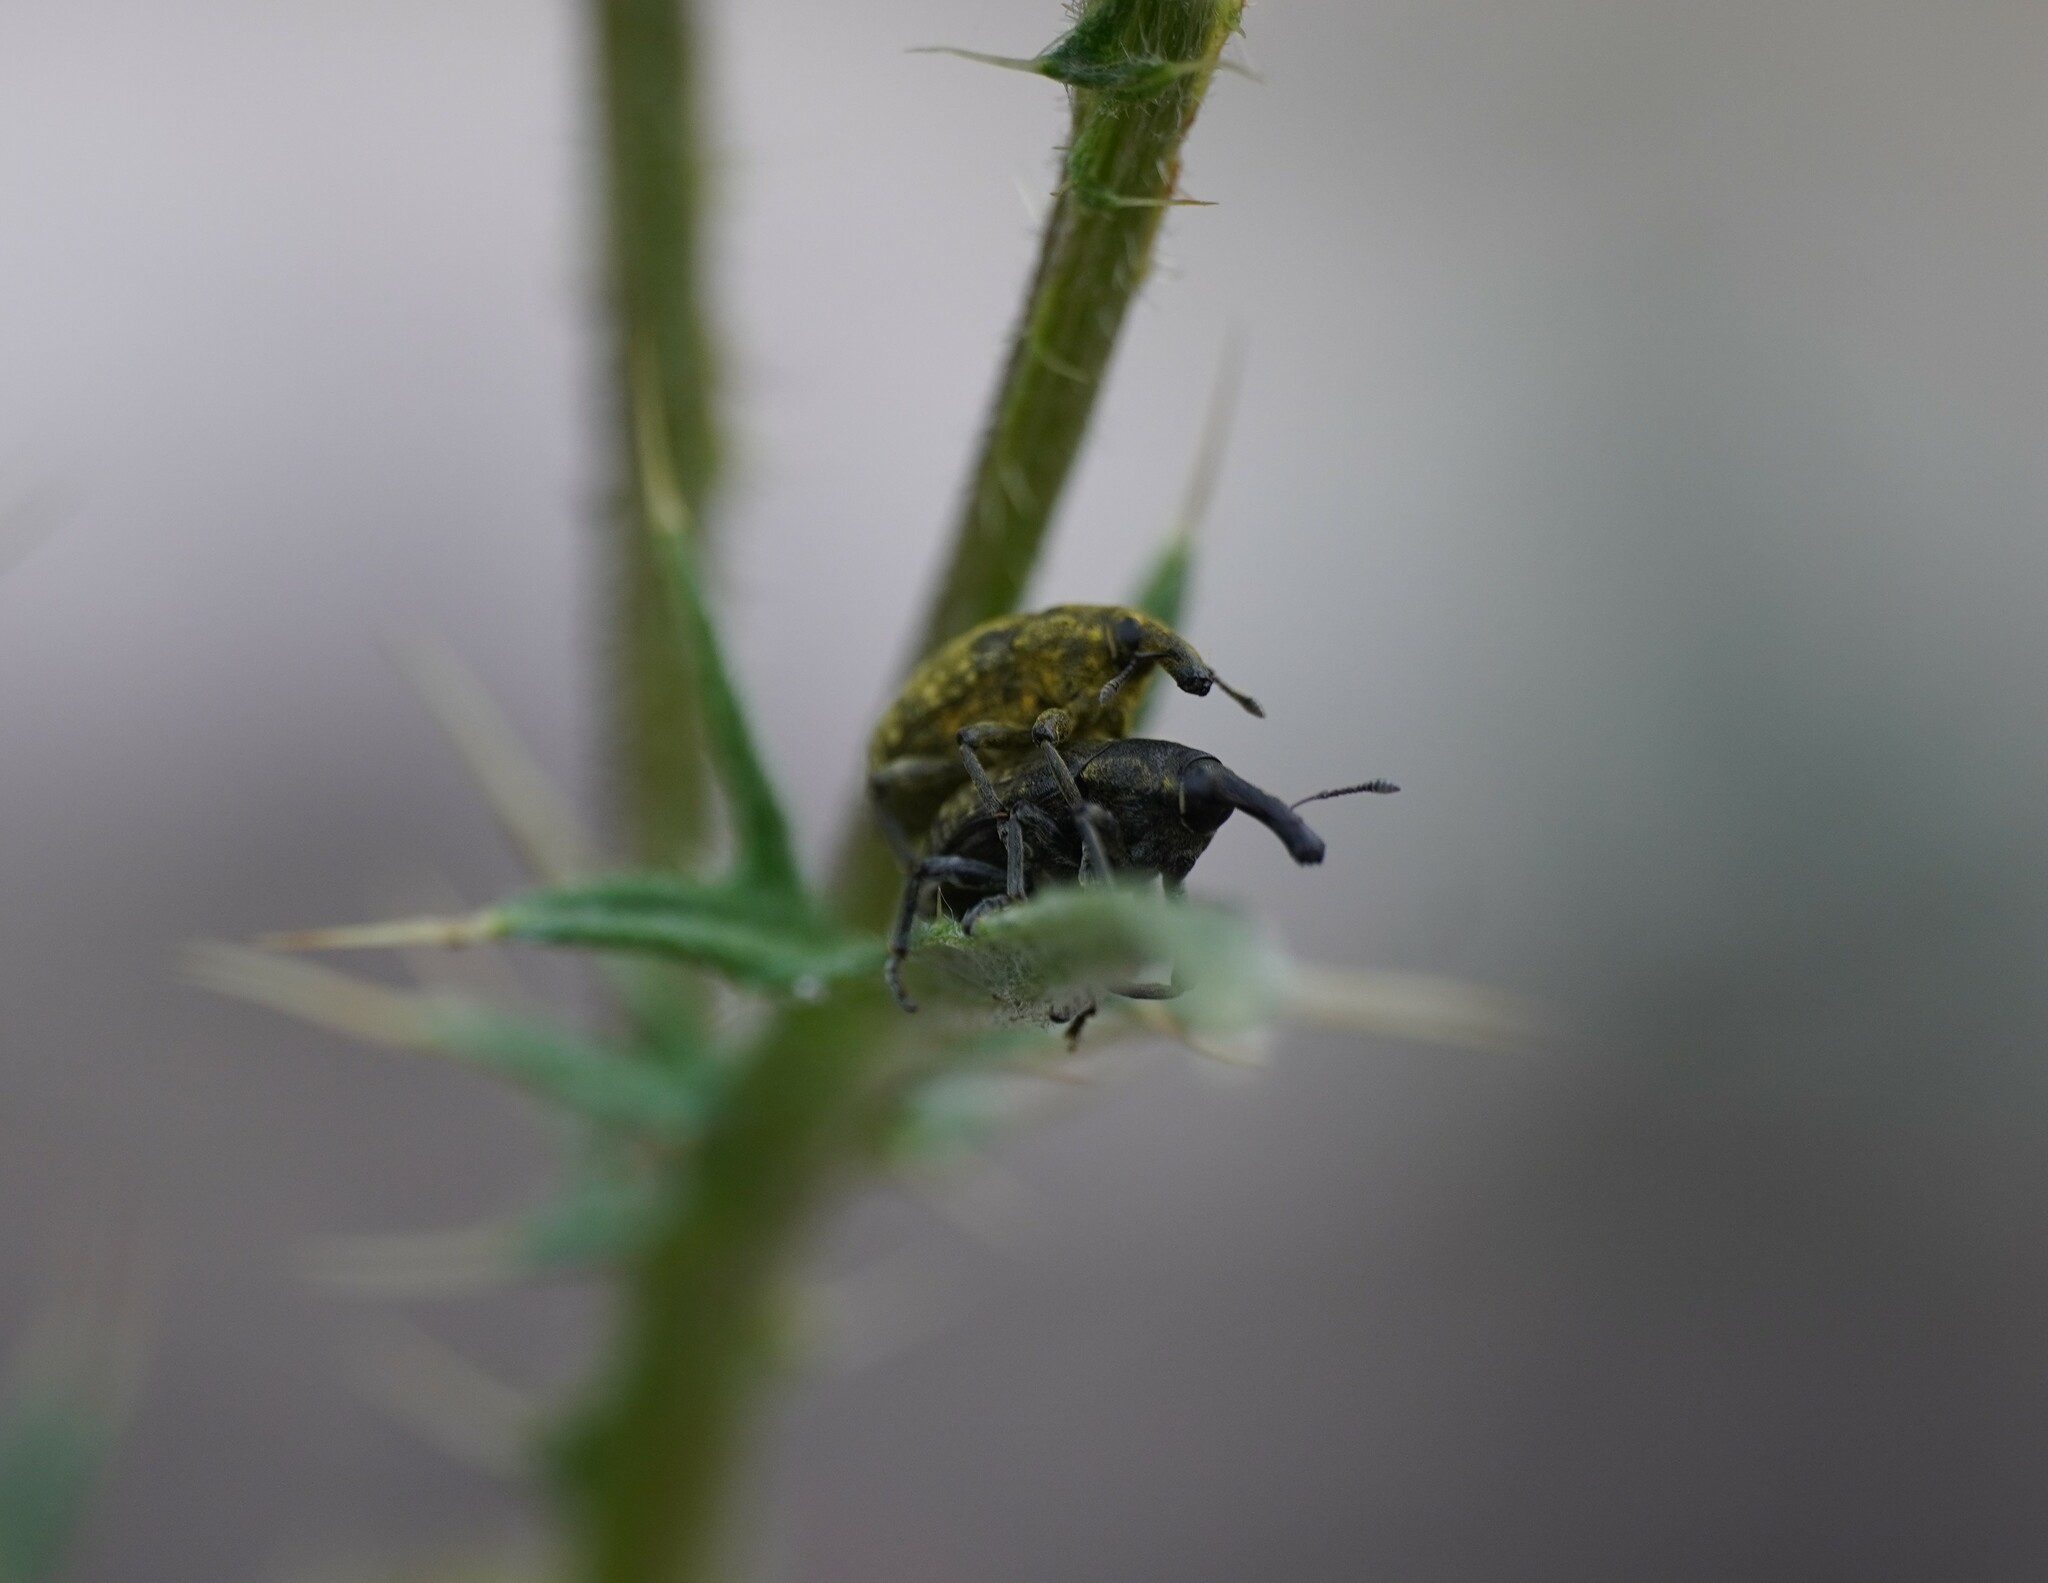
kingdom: Animalia
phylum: Arthropoda
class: Insecta
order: Coleoptera
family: Curculionidae
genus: Larinus
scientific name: Larinus sturnus
